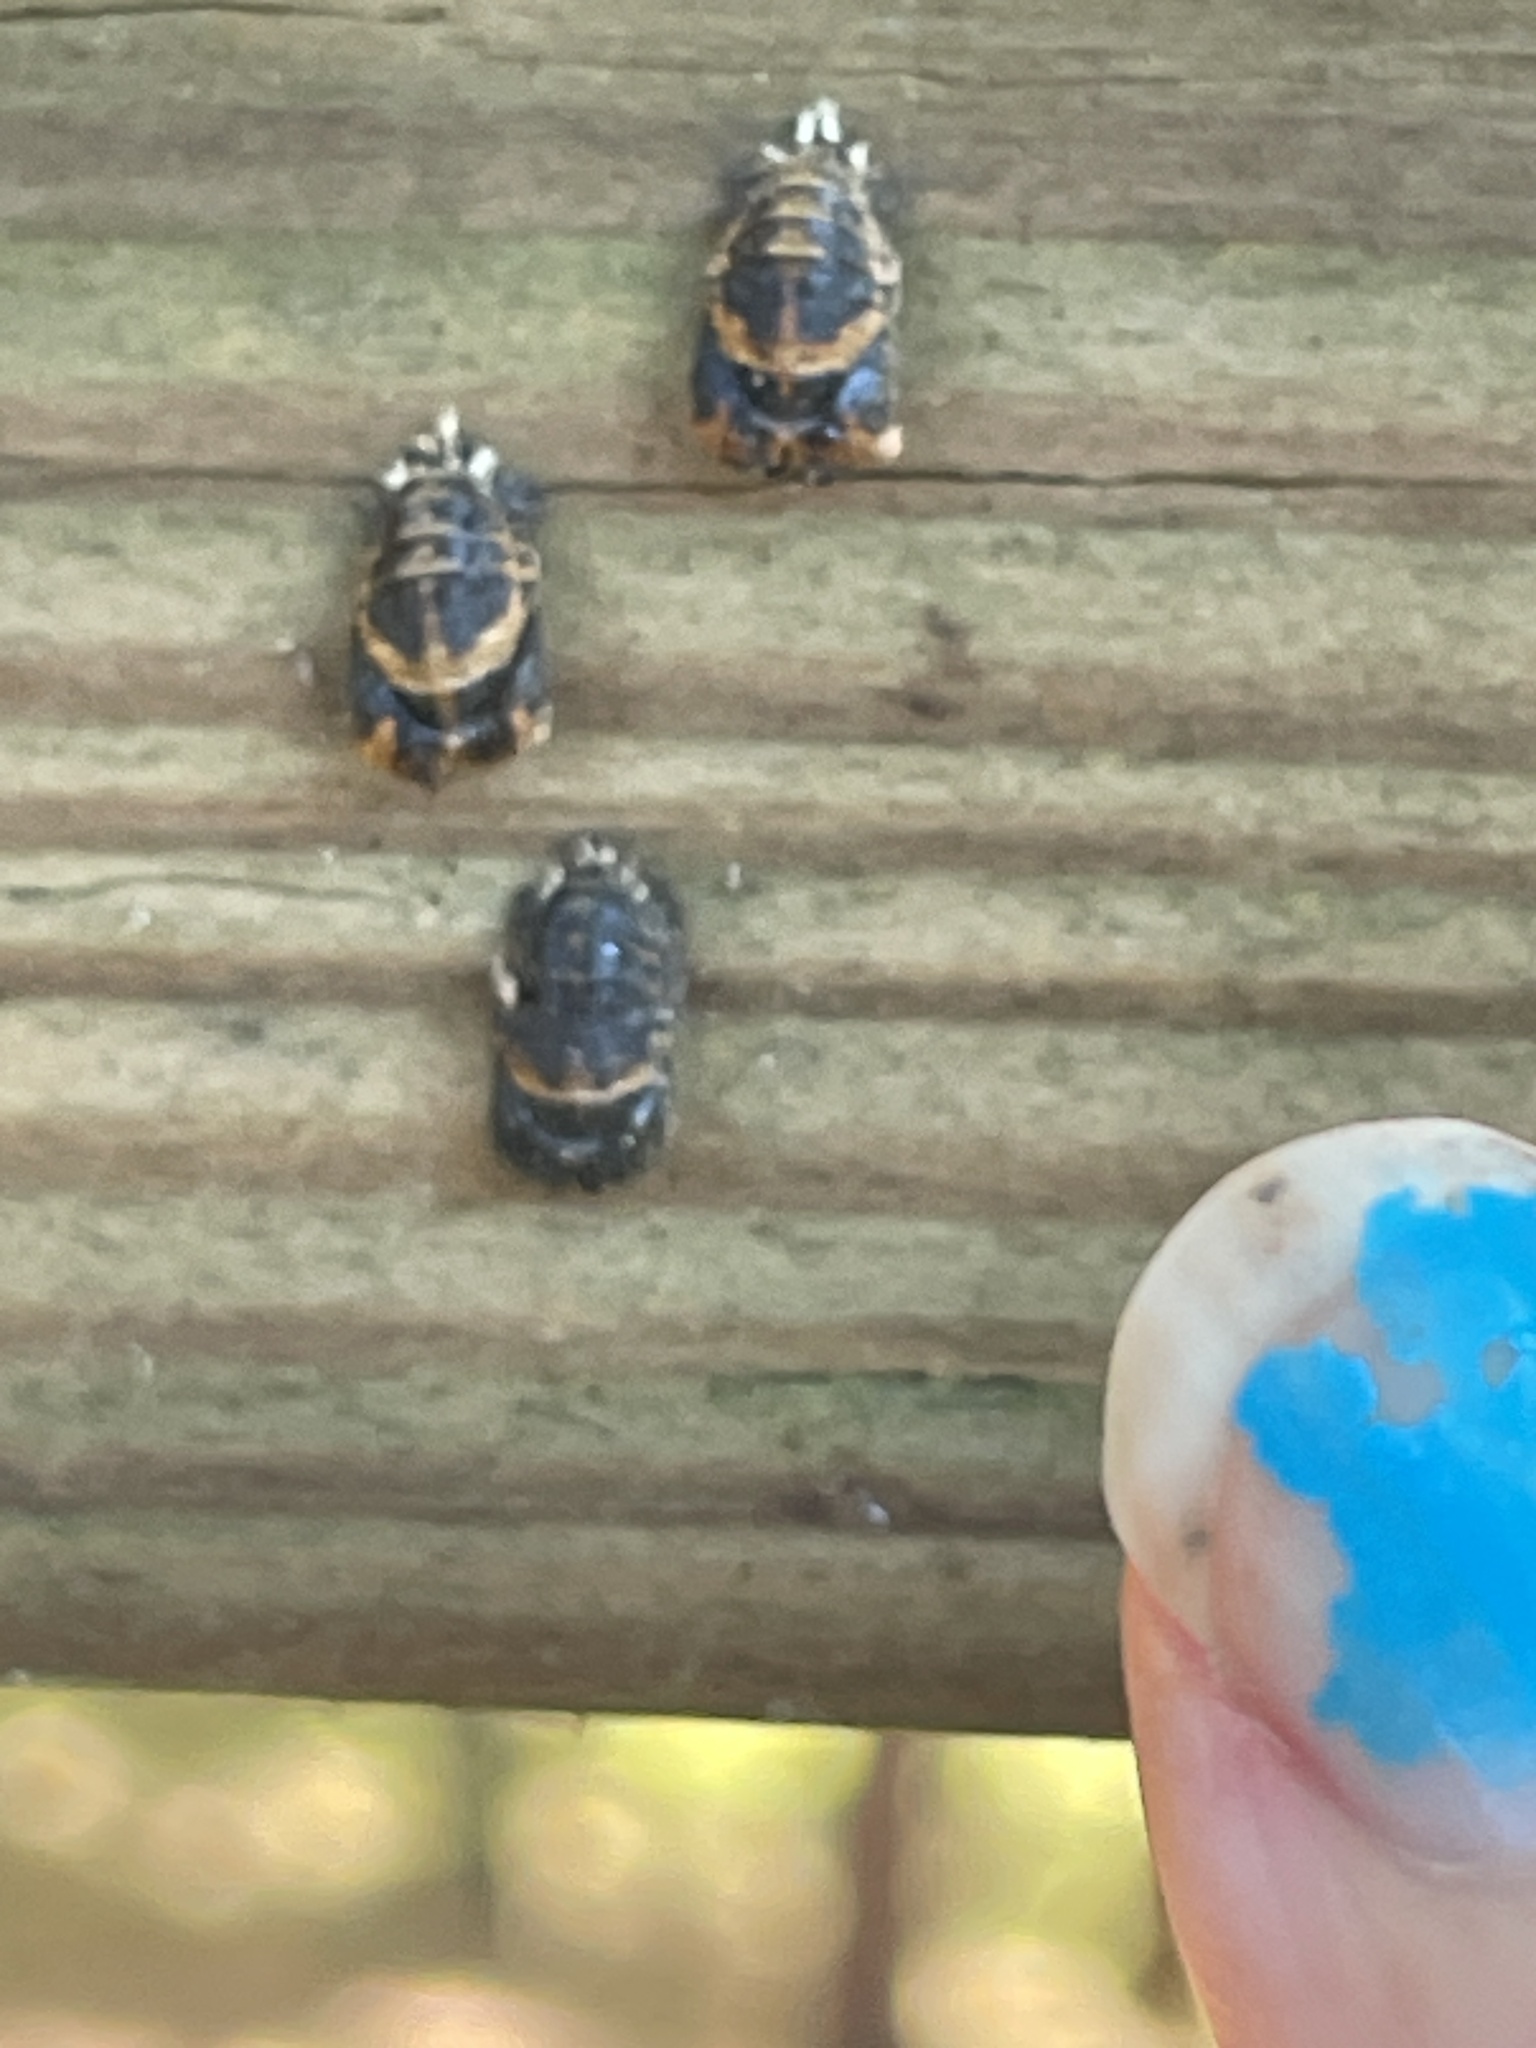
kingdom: Animalia
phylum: Arthropoda
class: Insecta
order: Coleoptera
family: Coccinellidae
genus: Harmonia
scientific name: Harmonia axyridis
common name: Harlequin ladybird
